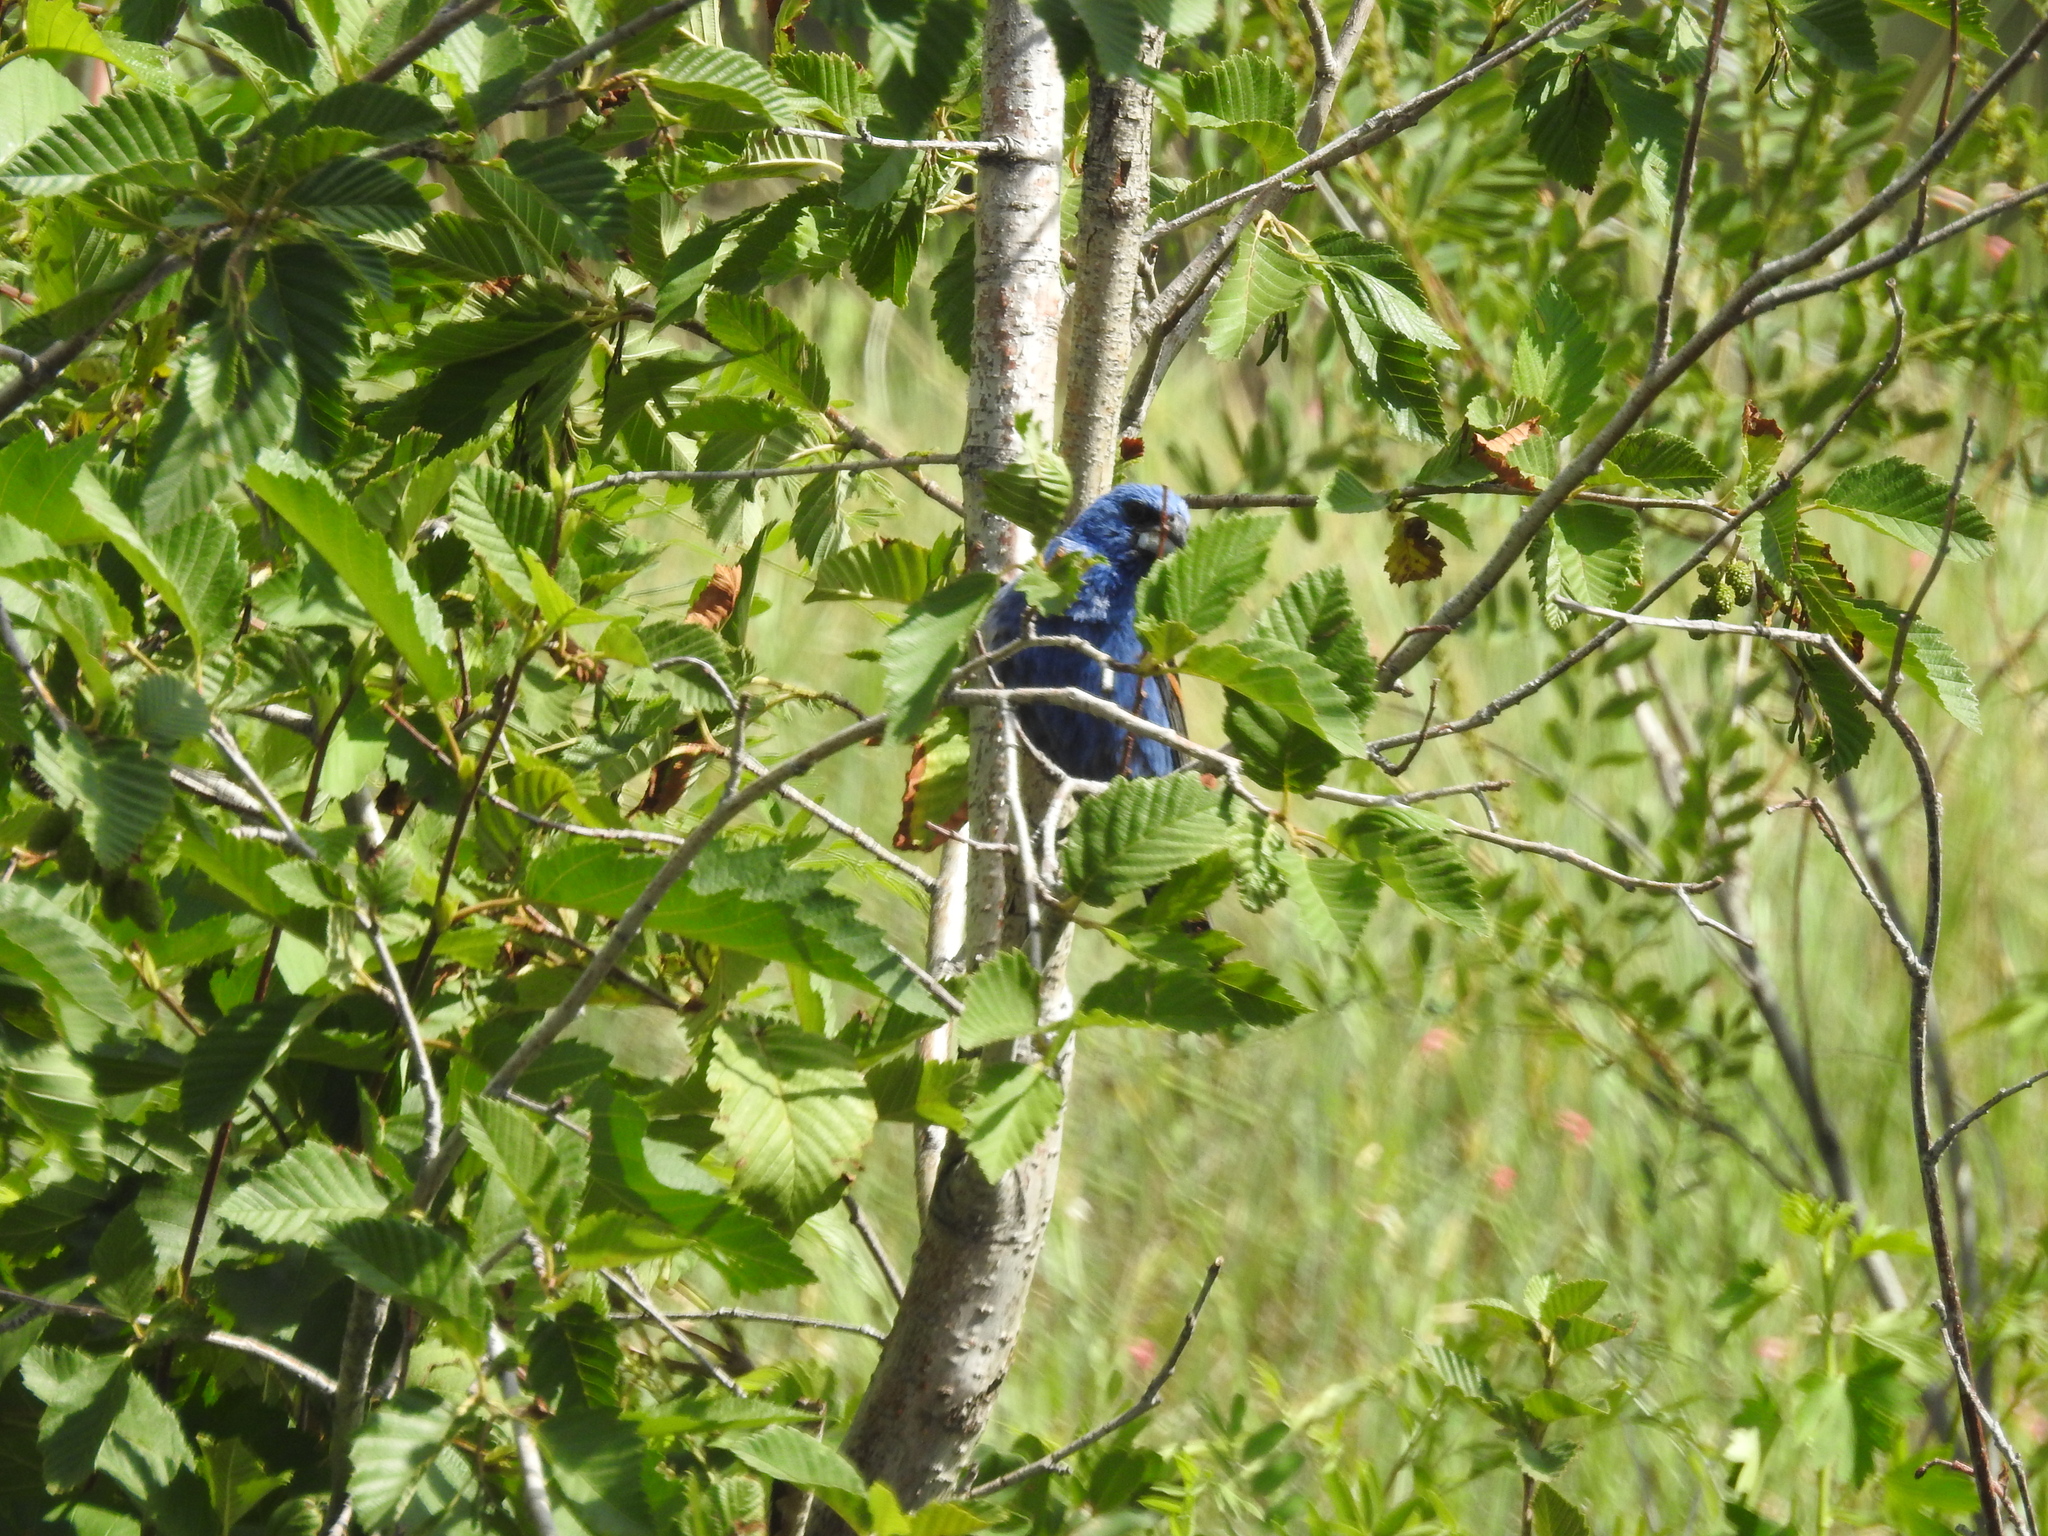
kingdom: Animalia
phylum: Chordata
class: Aves
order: Passeriformes
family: Cardinalidae
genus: Passerina
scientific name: Passerina caerulea
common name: Blue grosbeak
